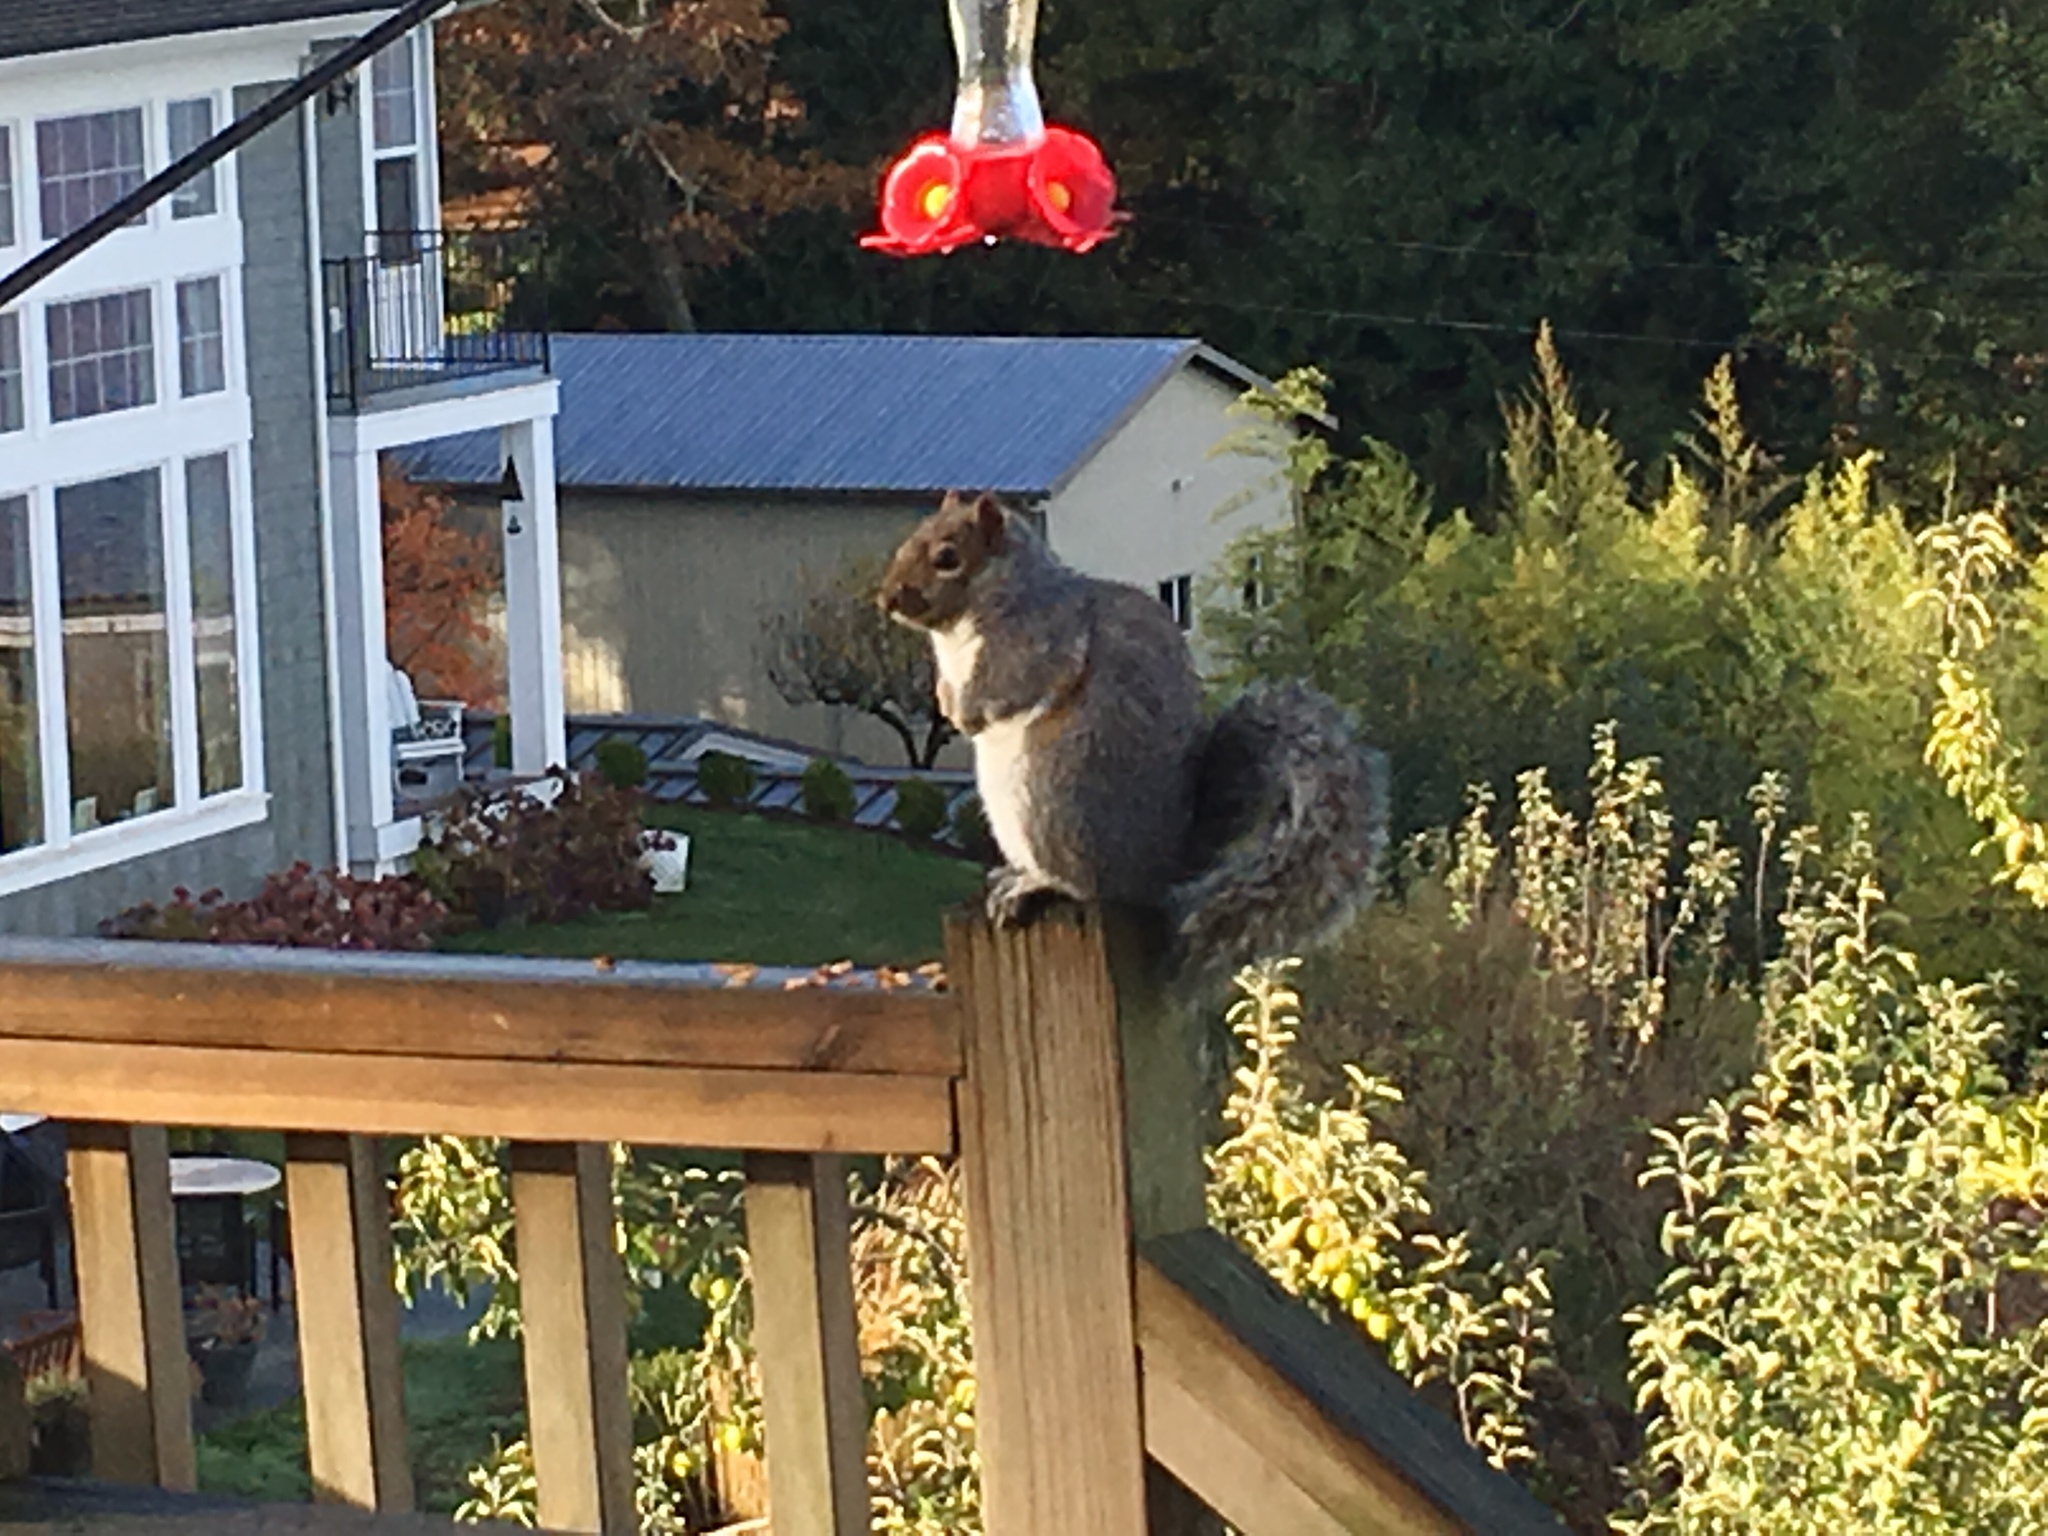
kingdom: Animalia
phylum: Chordata
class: Mammalia
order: Rodentia
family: Sciuridae
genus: Sciurus
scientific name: Sciurus carolinensis
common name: Eastern gray squirrel
